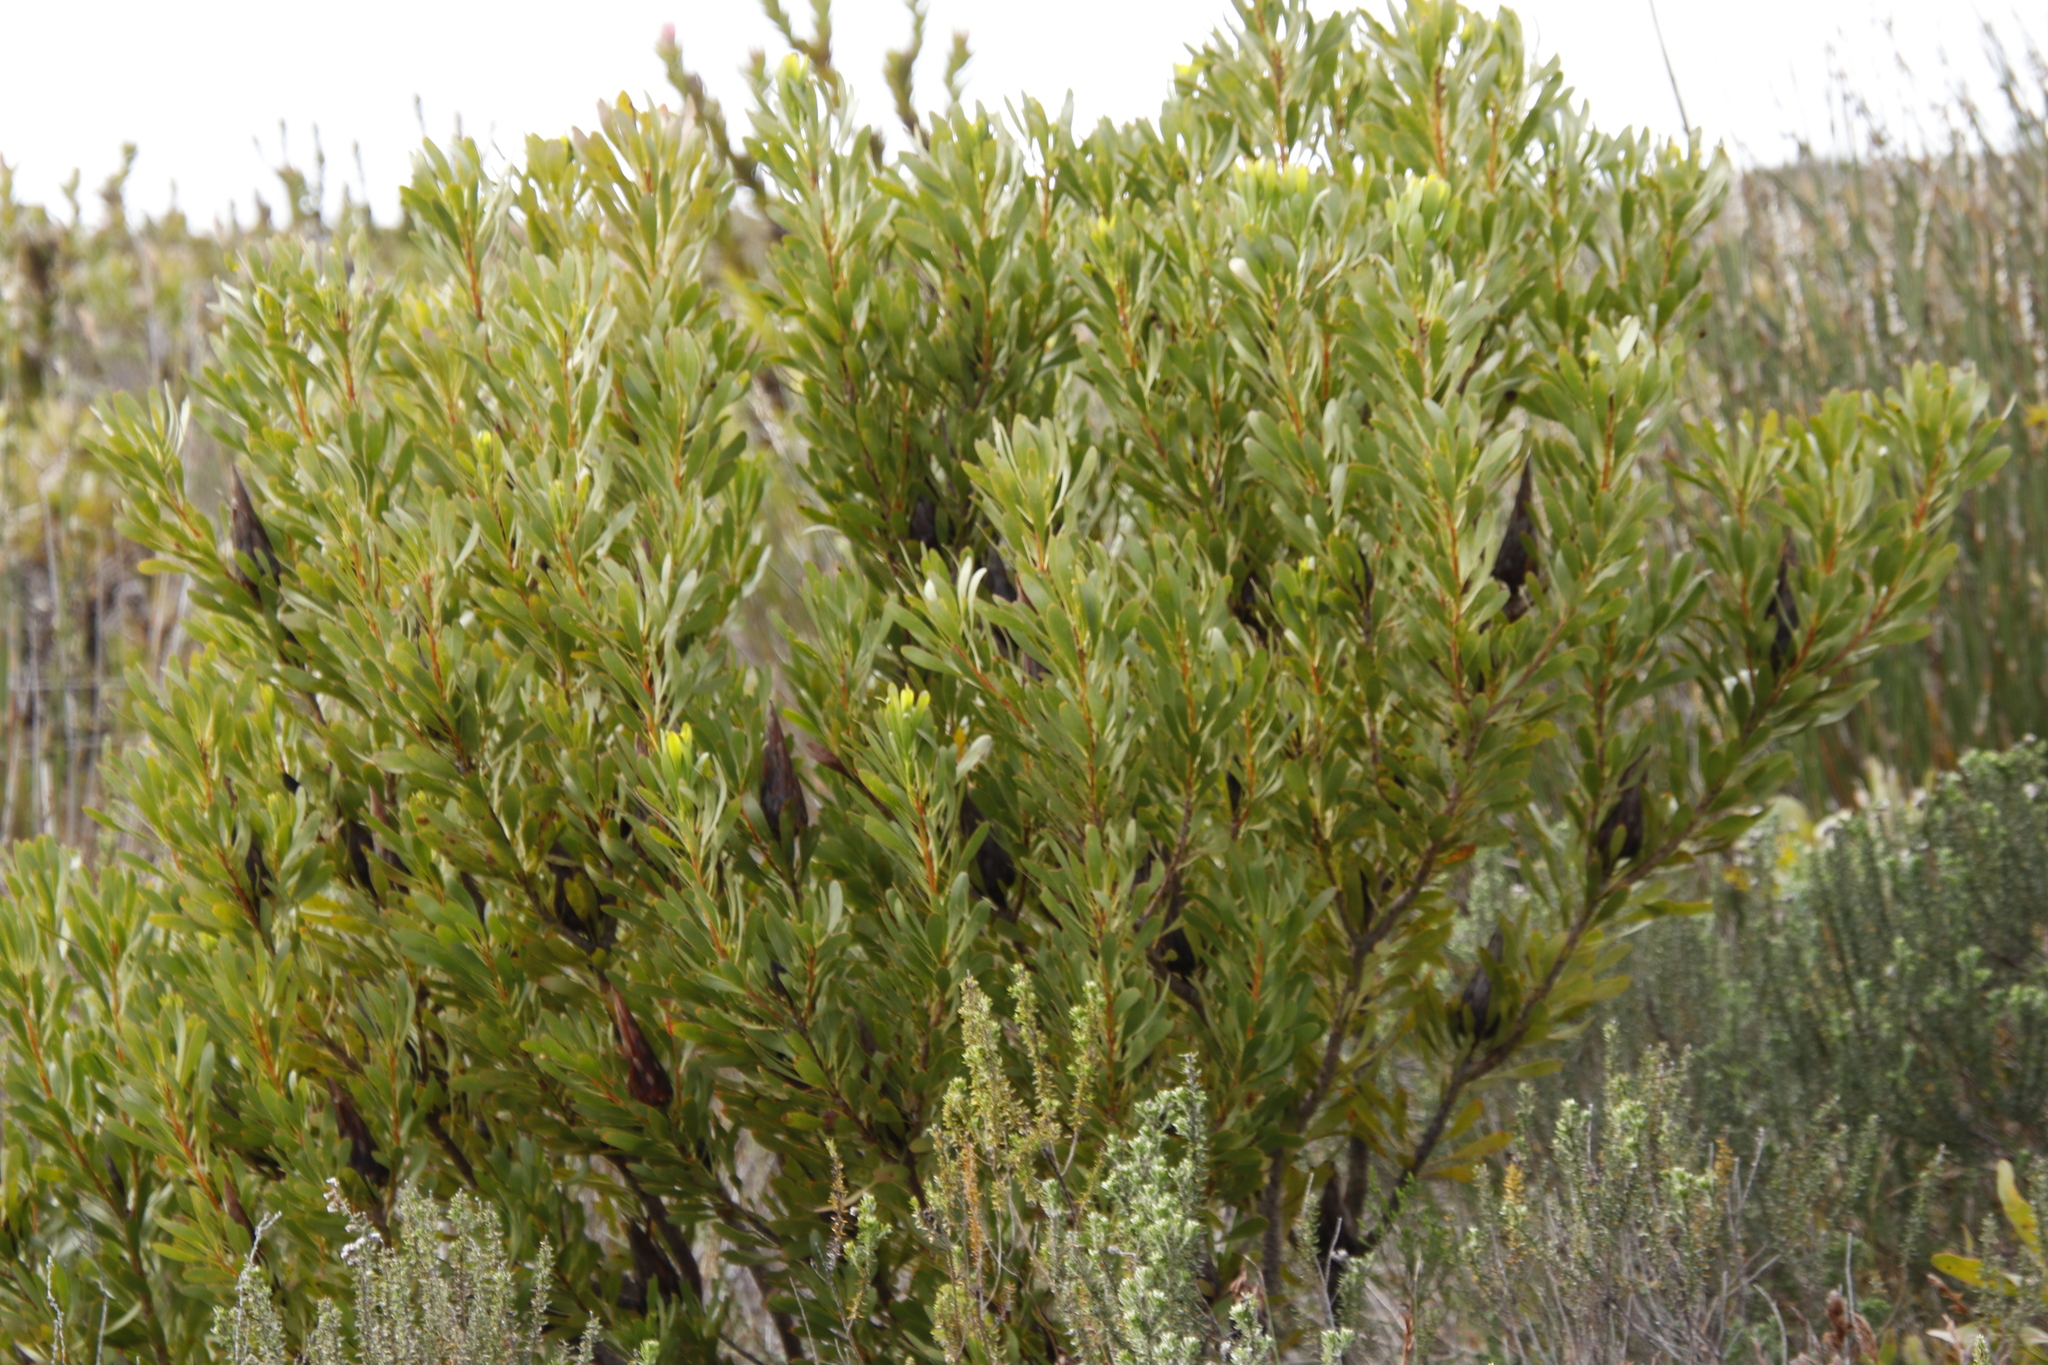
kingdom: Plantae
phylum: Tracheophyta
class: Magnoliopsida
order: Proteales
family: Proteaceae
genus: Protea
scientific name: Protea repens
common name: Sugarbush
